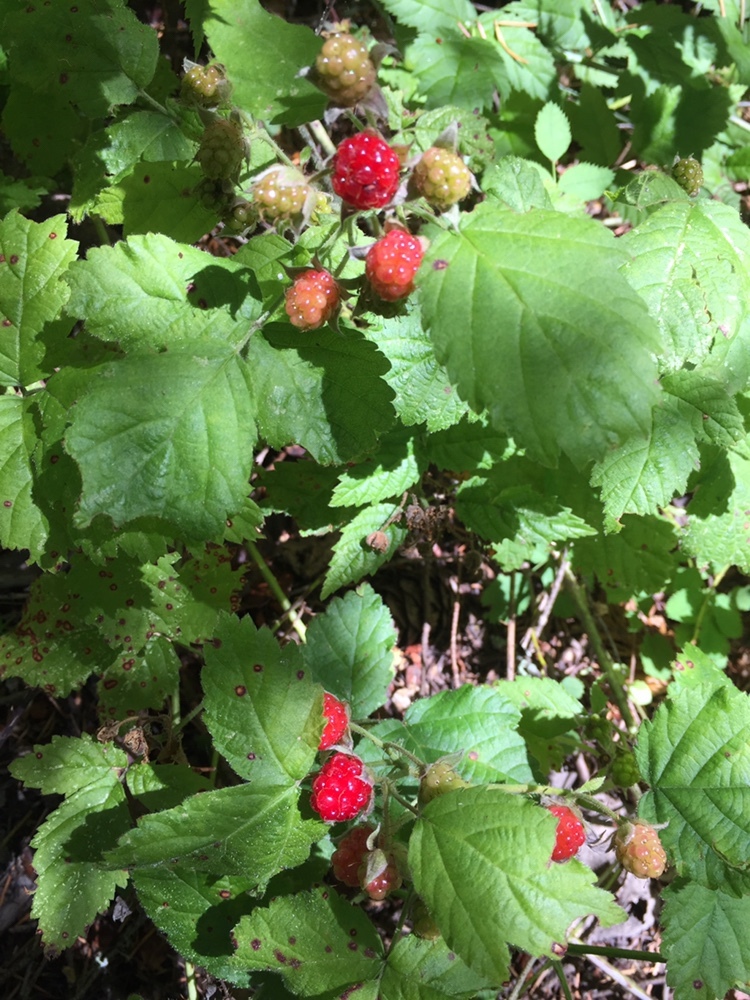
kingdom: Plantae
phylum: Tracheophyta
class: Magnoliopsida
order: Rosales
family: Rosaceae
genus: Rubus
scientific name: Rubus ursinus
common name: Pacific blackberry
